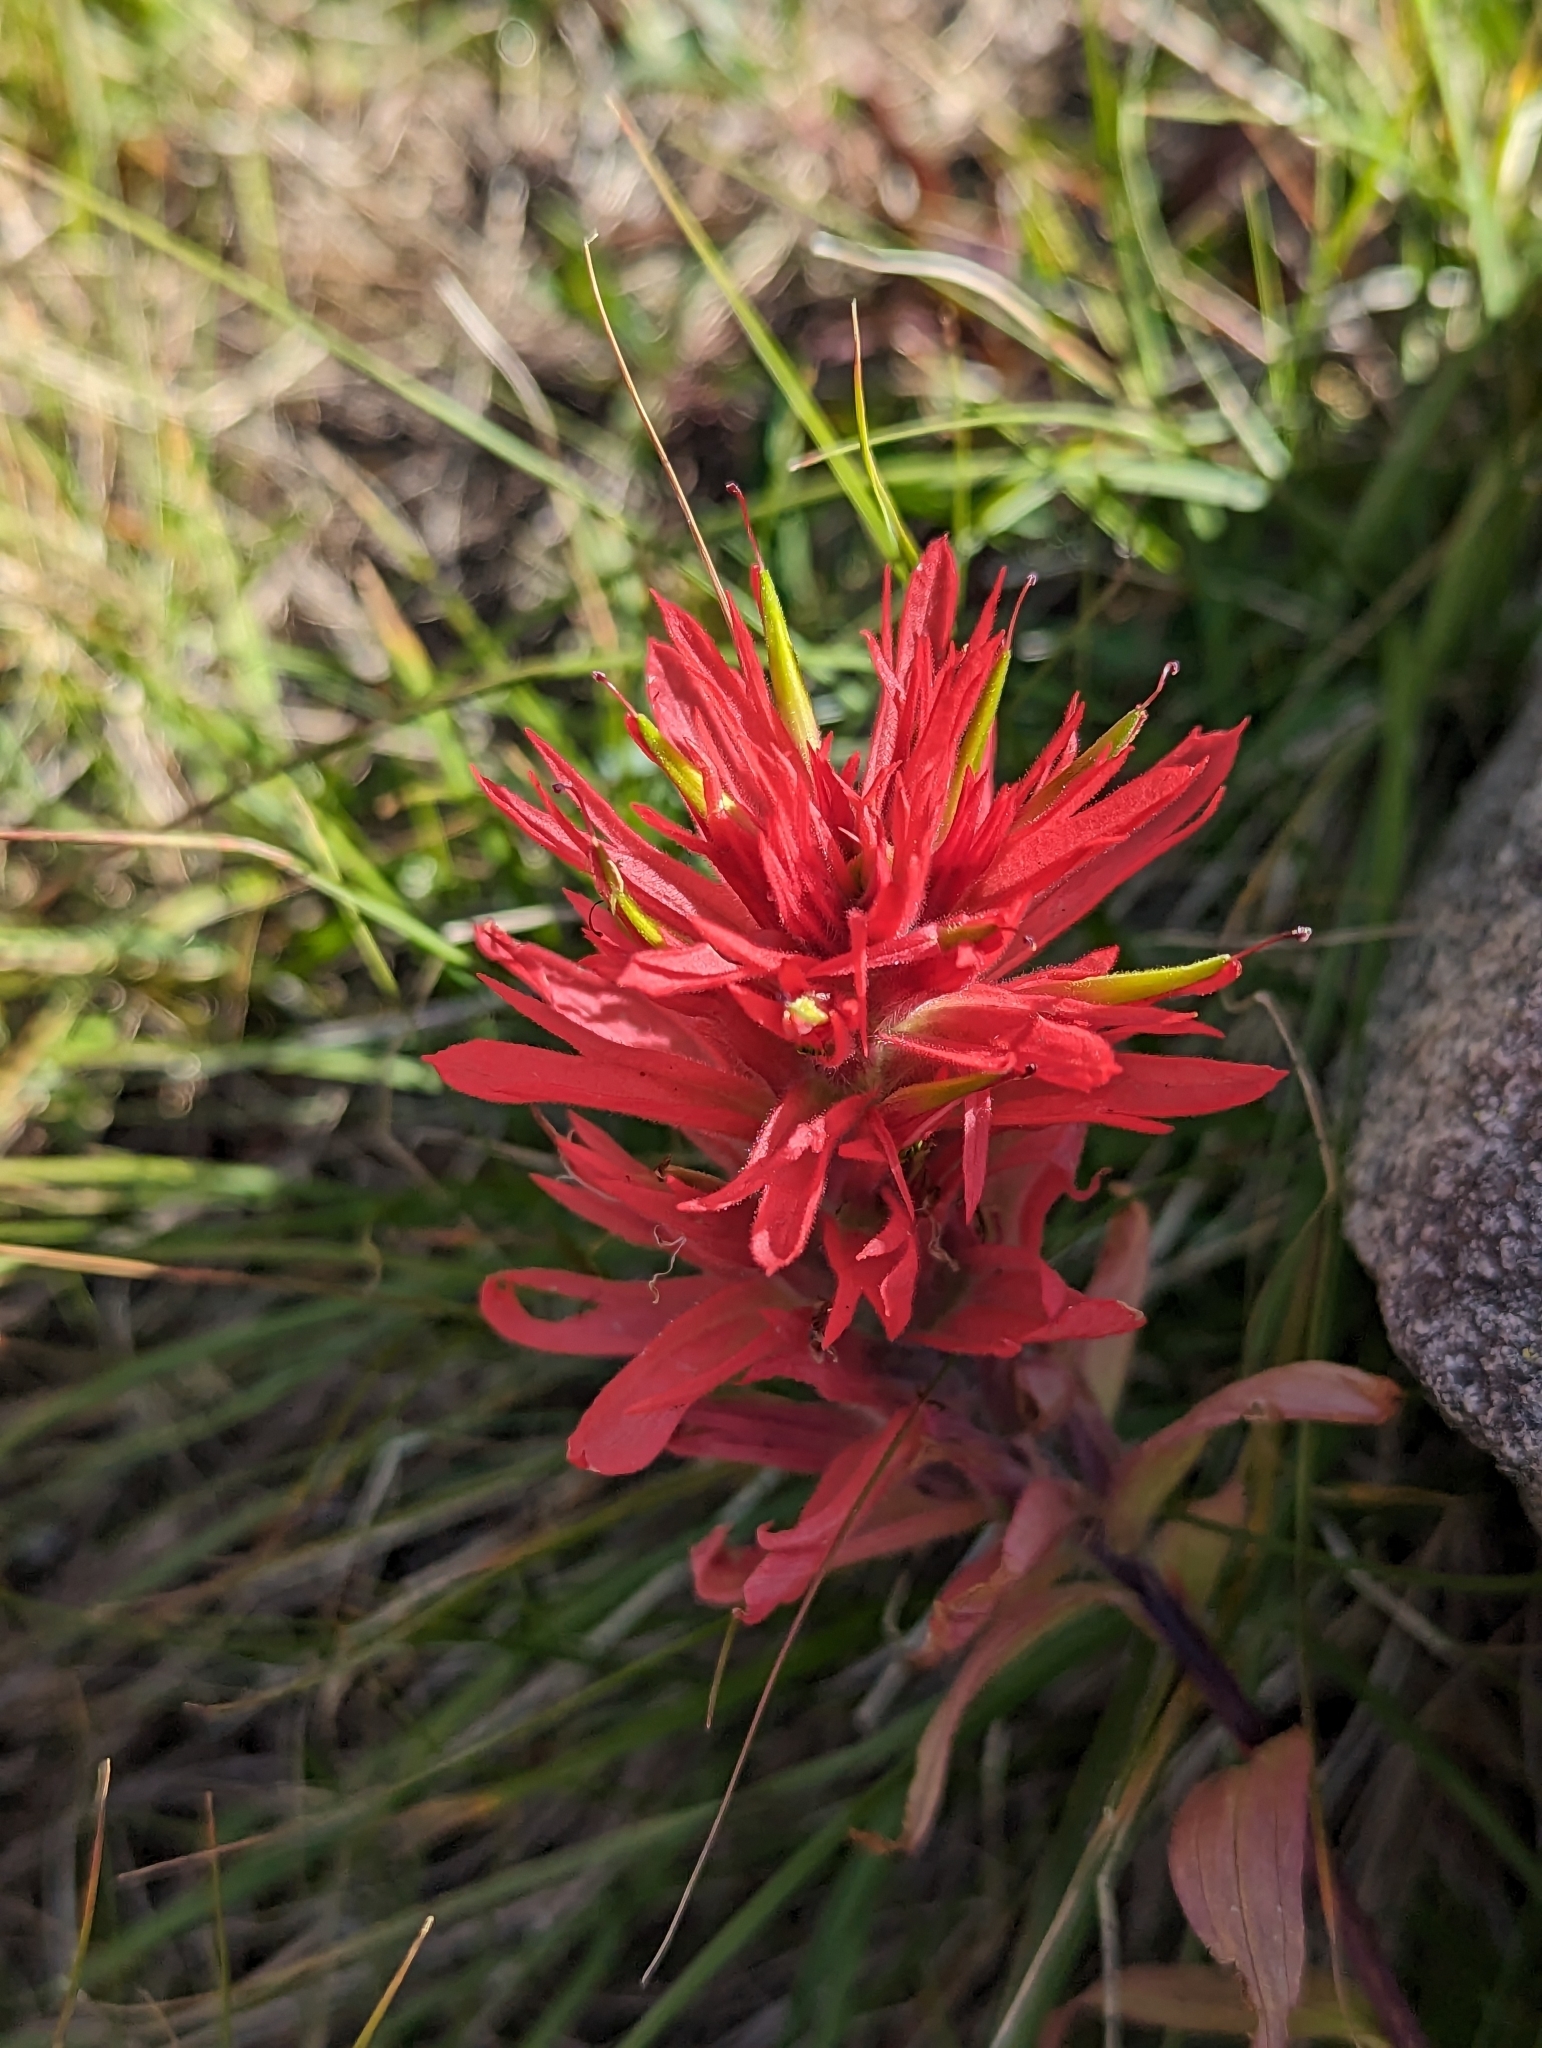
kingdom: Plantae
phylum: Tracheophyta
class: Magnoliopsida
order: Lamiales
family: Orobanchaceae
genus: Castilleja
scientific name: Castilleja miniata
